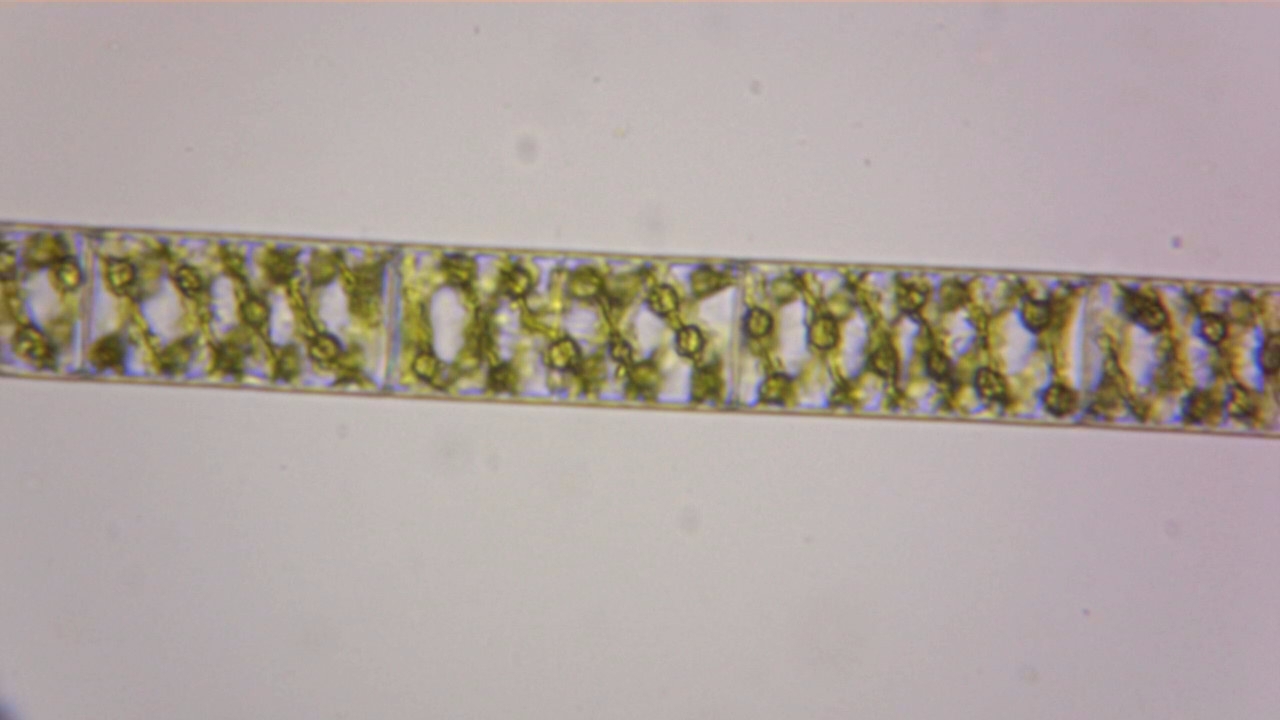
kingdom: Plantae
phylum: Charophyta
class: Zygnematophyceae
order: Zygnematales
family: Zygnemataceae
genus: Spirogyra
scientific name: Spirogyra
